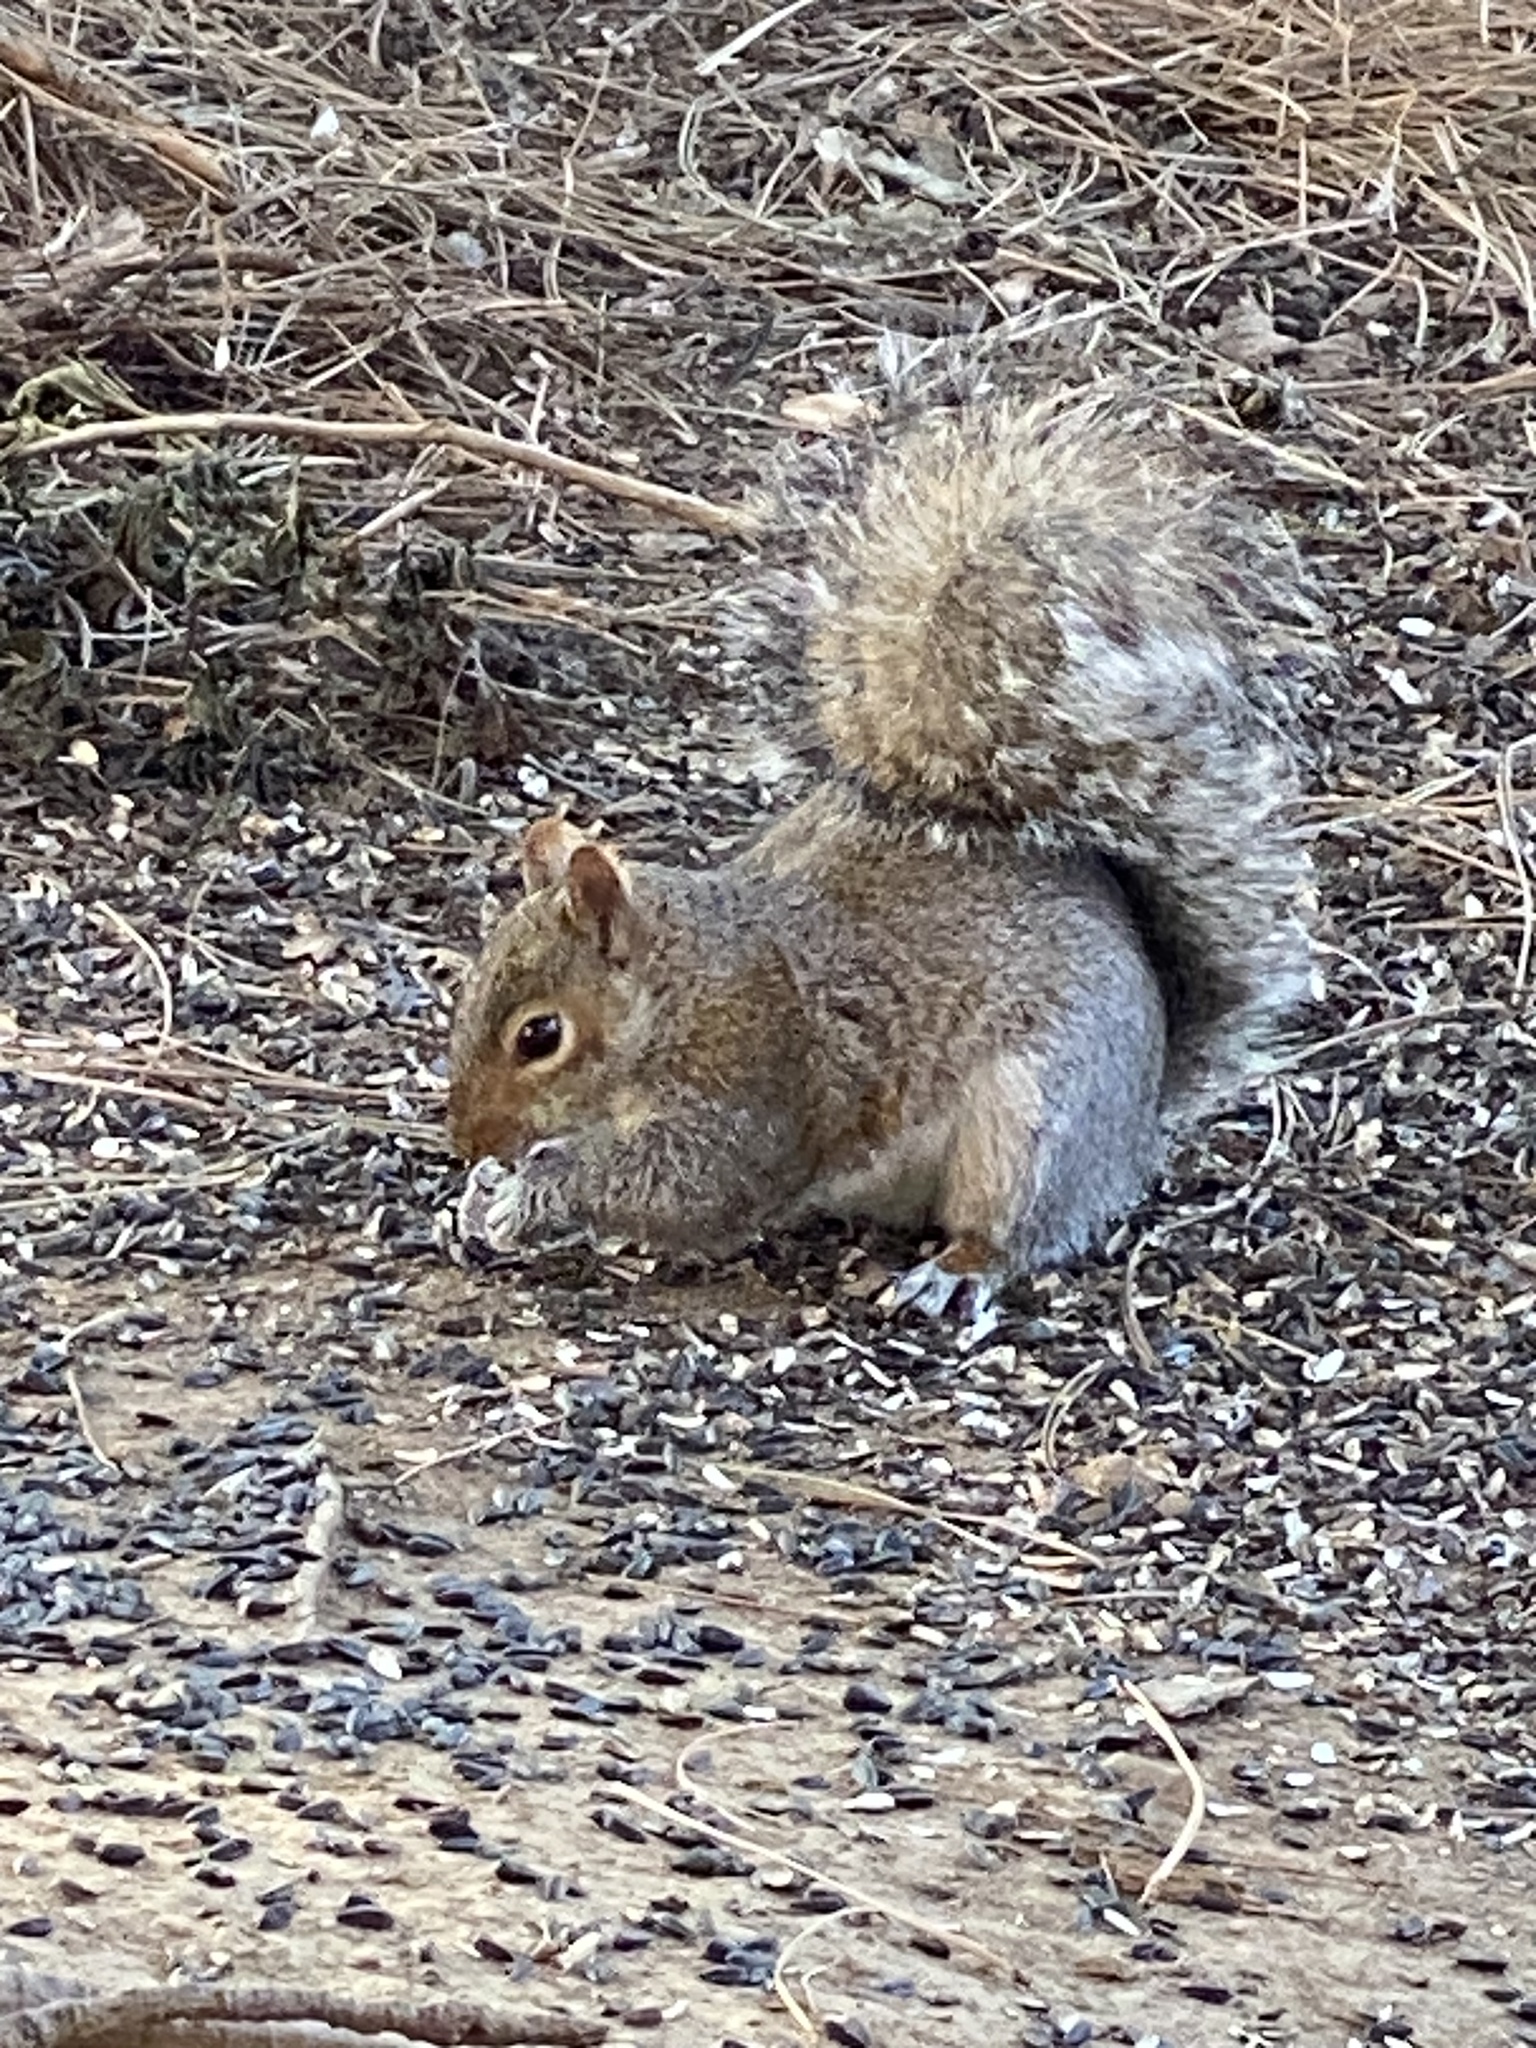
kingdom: Animalia
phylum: Chordata
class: Mammalia
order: Rodentia
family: Sciuridae
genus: Sciurus
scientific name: Sciurus carolinensis
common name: Eastern gray squirrel
